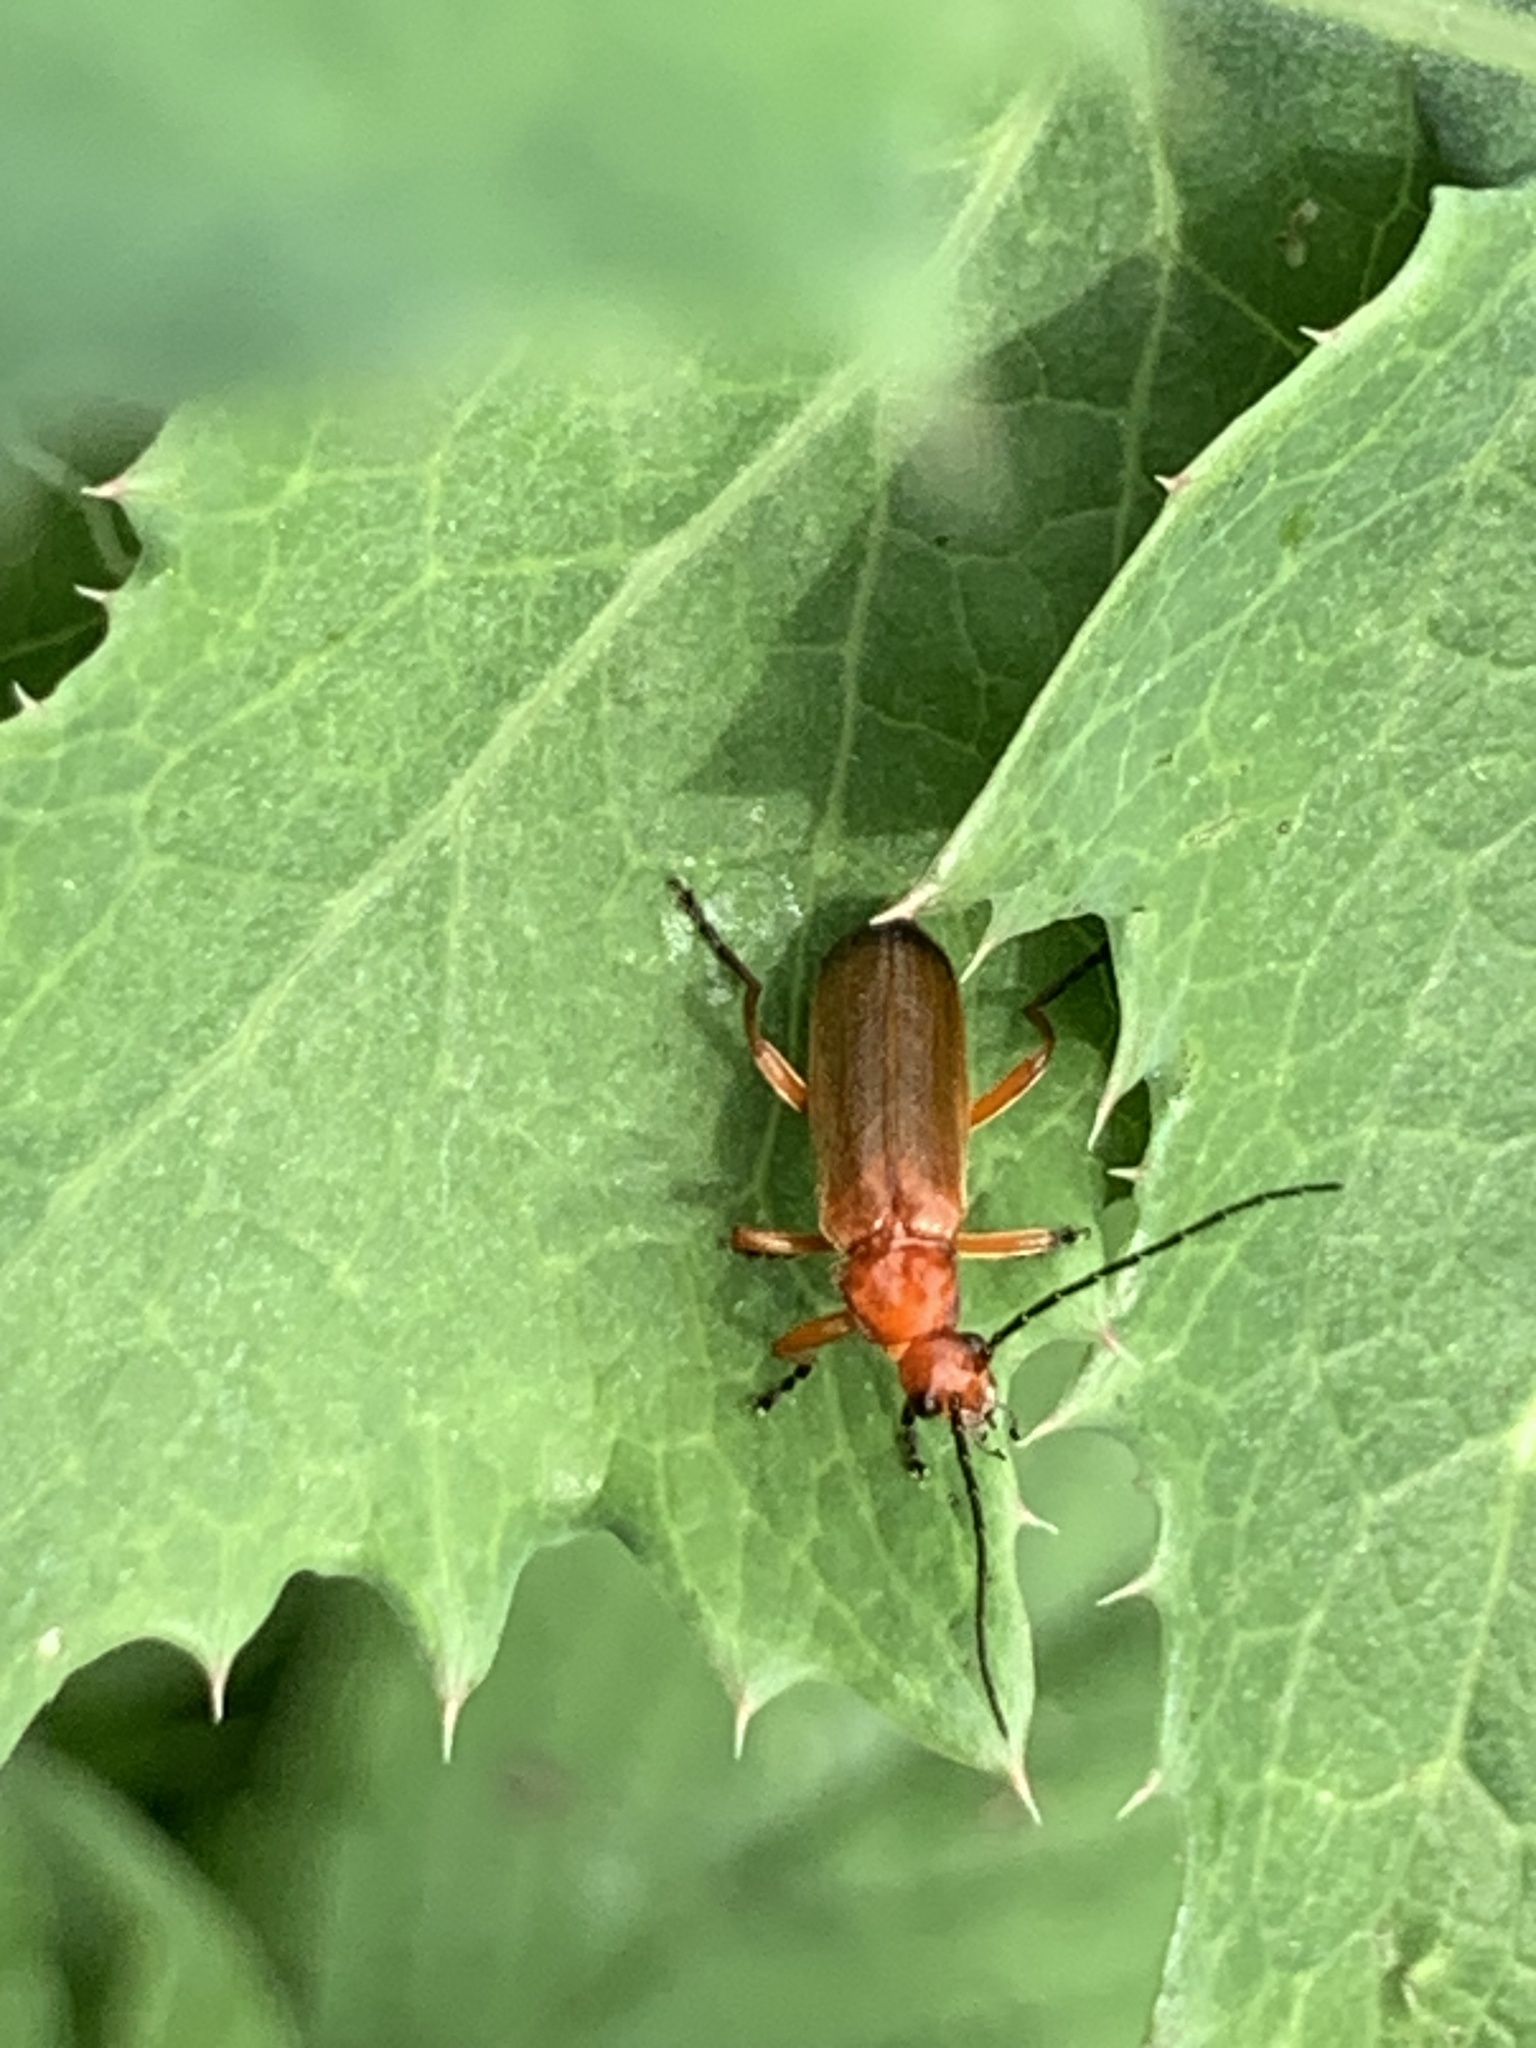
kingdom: Animalia
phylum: Arthropoda
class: Insecta
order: Coleoptera
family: Cantharidae
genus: Rhagonycha
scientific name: Rhagonycha fulva
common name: Common red soldier beetle
